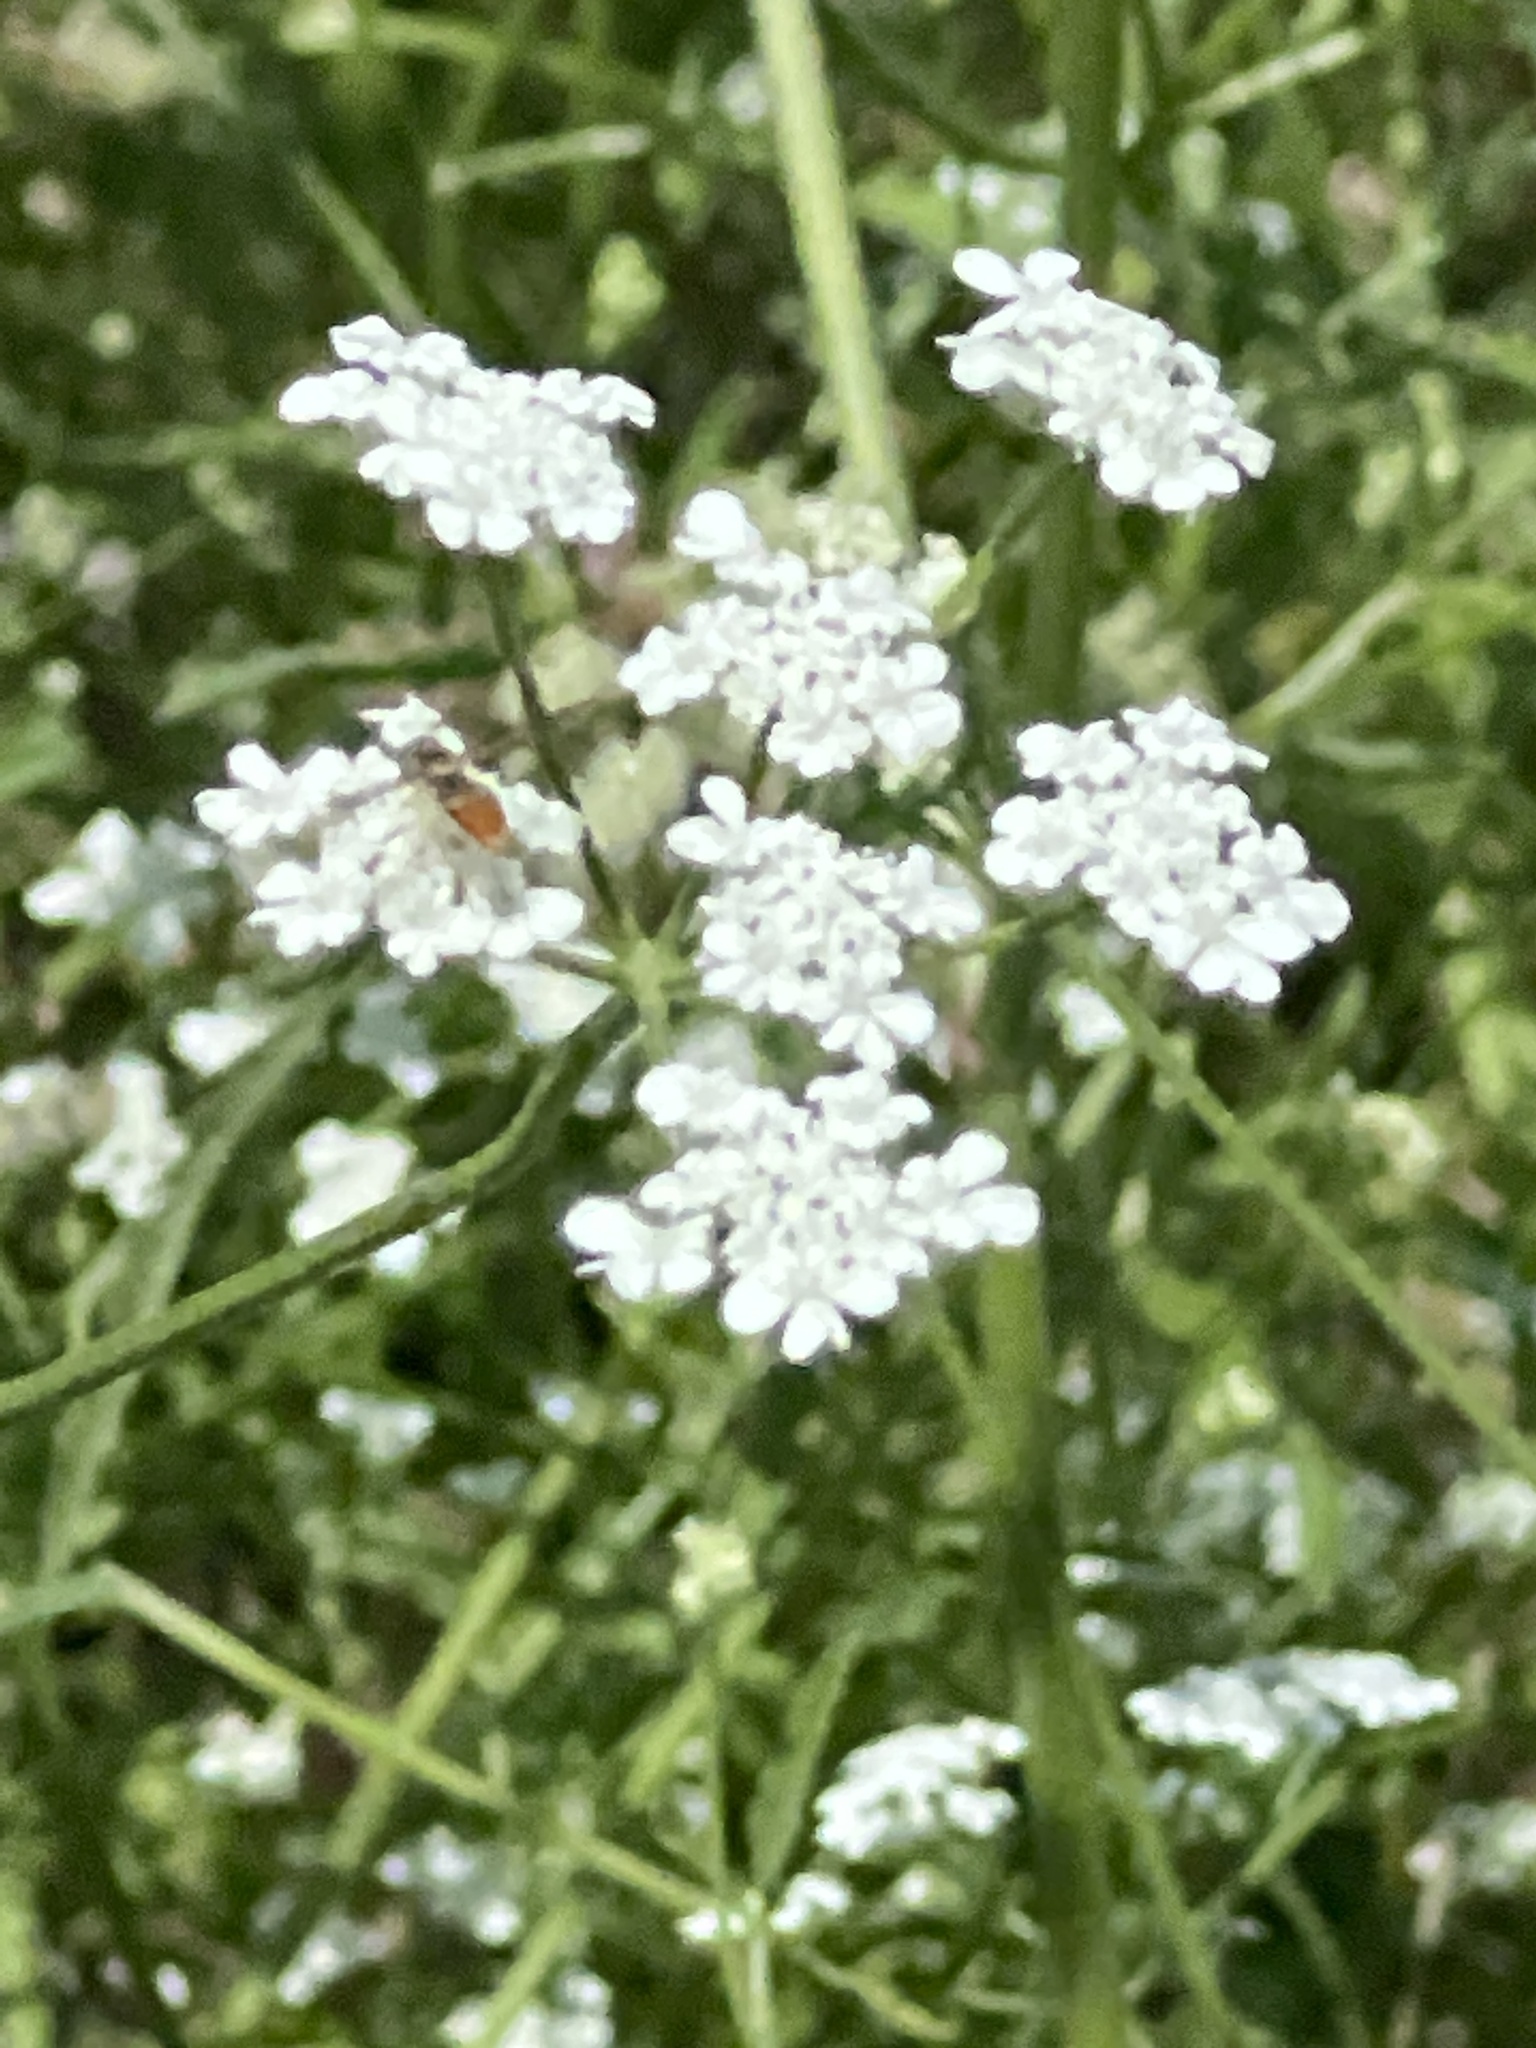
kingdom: Plantae
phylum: Tracheophyta
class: Magnoliopsida
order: Apiales
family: Apiaceae
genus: Torilis
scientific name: Torilis arvensis
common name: Spreading hedge-parsley
